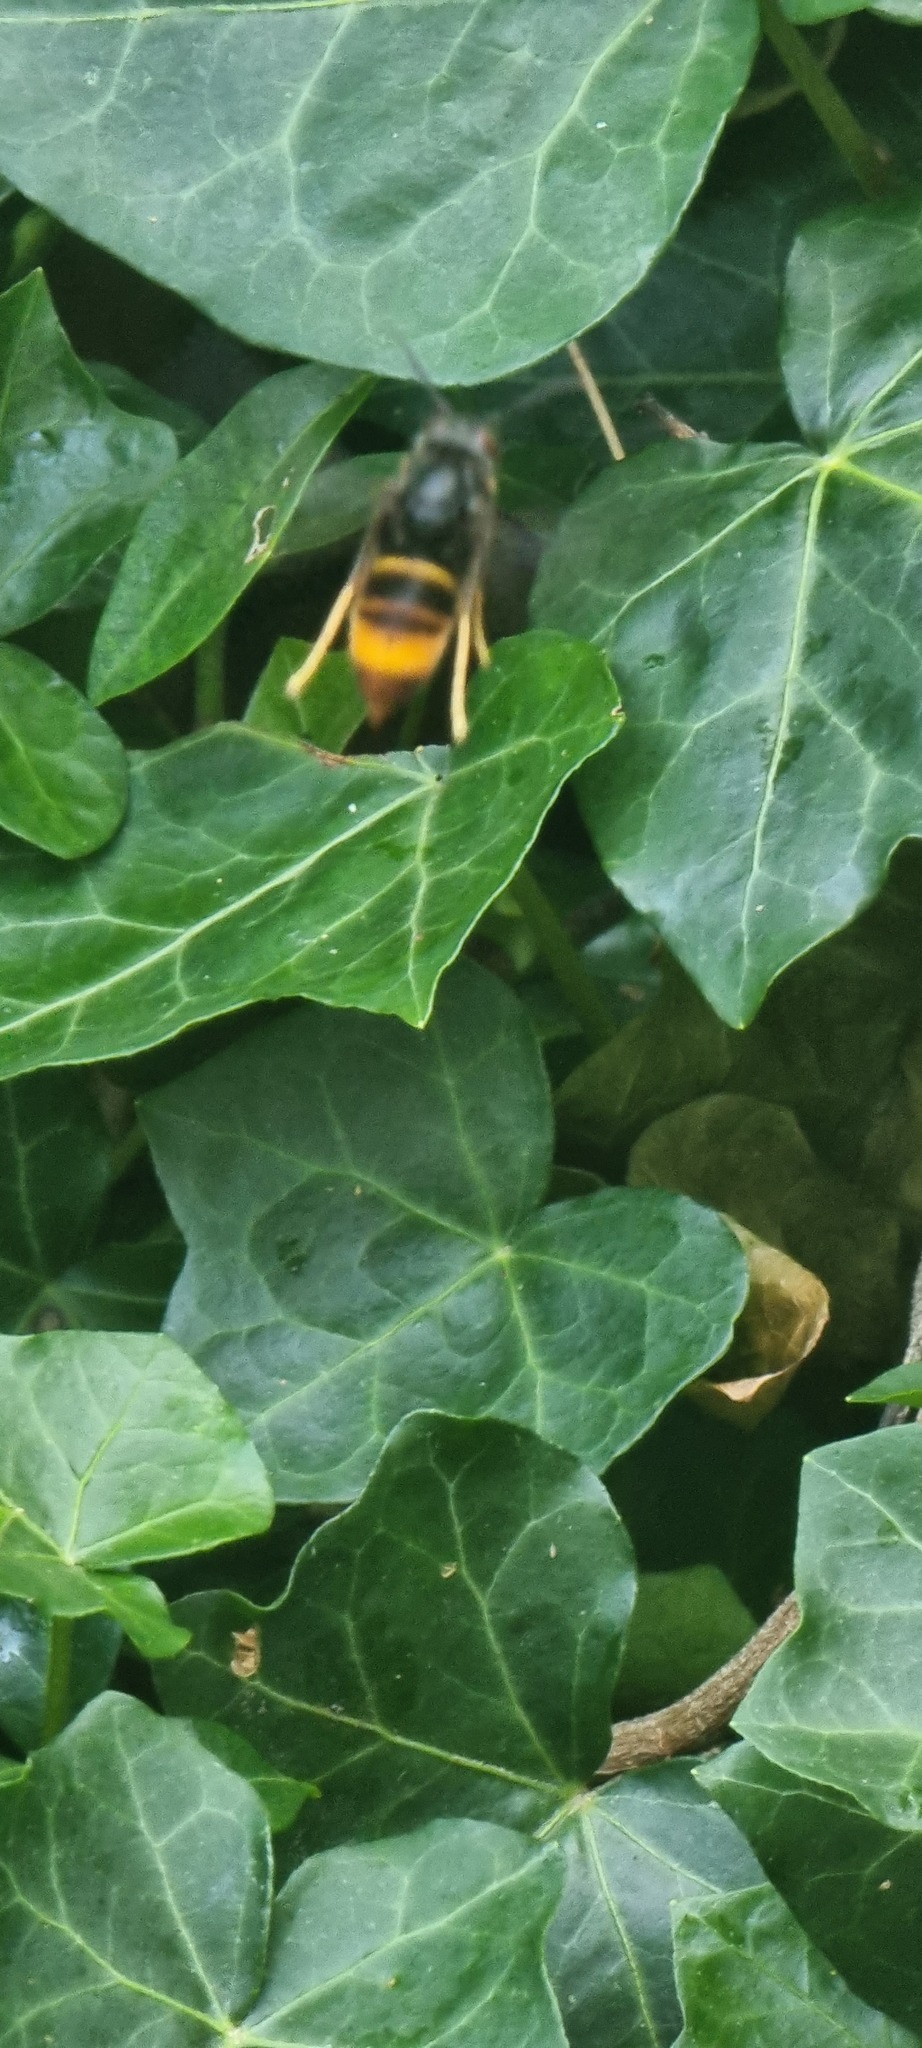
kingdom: Animalia
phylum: Arthropoda
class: Insecta
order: Hymenoptera
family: Vespidae
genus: Vespa
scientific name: Vespa velutina
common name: Asian hornet
